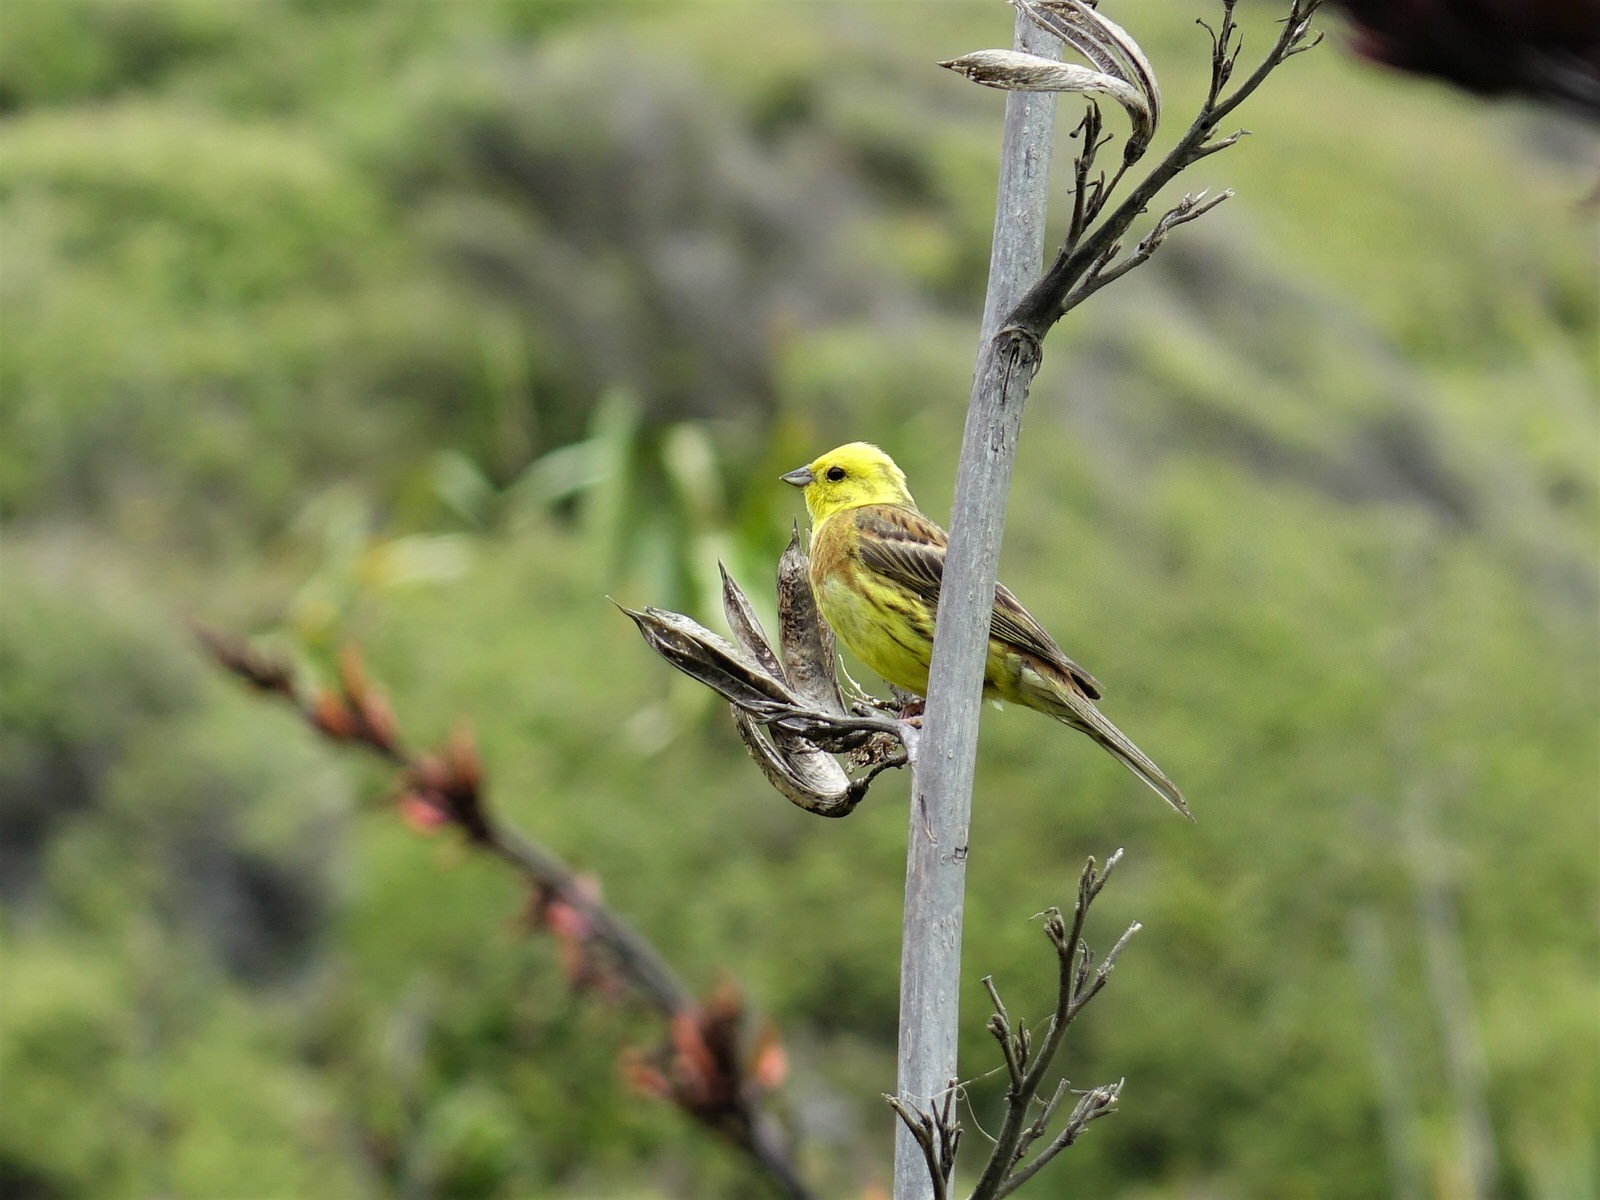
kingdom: Animalia
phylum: Chordata
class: Aves
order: Passeriformes
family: Emberizidae
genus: Emberiza
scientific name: Emberiza citrinella
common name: Yellowhammer
